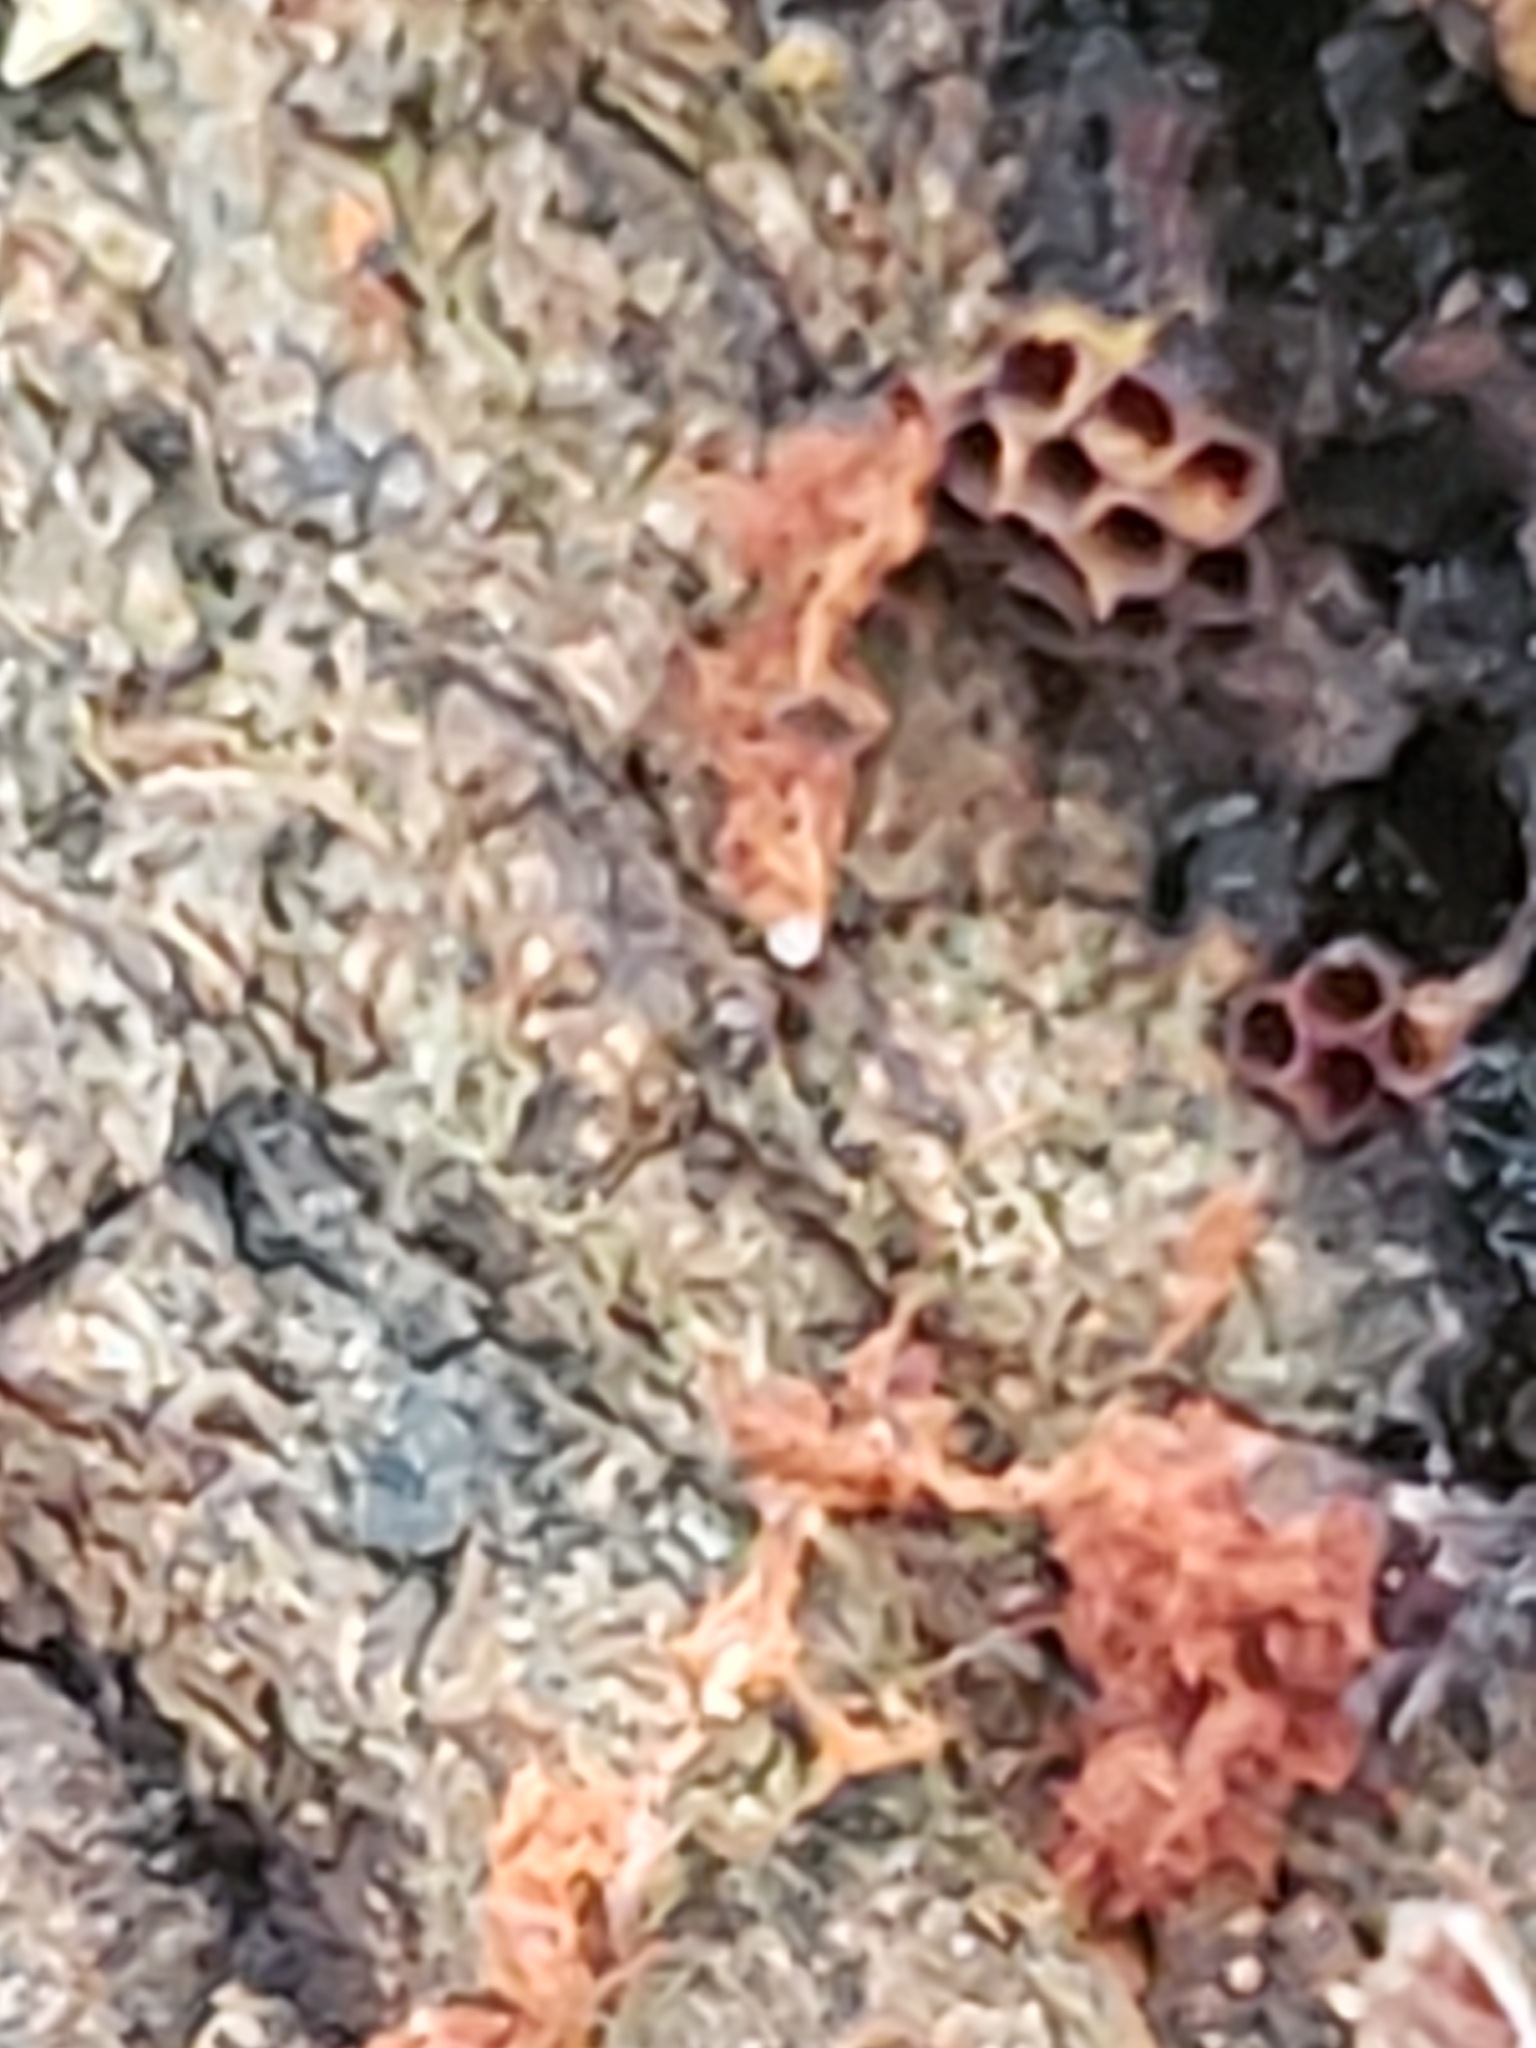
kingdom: Protozoa
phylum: Mycetozoa
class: Myxomycetes
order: Trichiales
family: Trichiaceae
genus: Metatrichia
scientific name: Metatrichia vesparia
